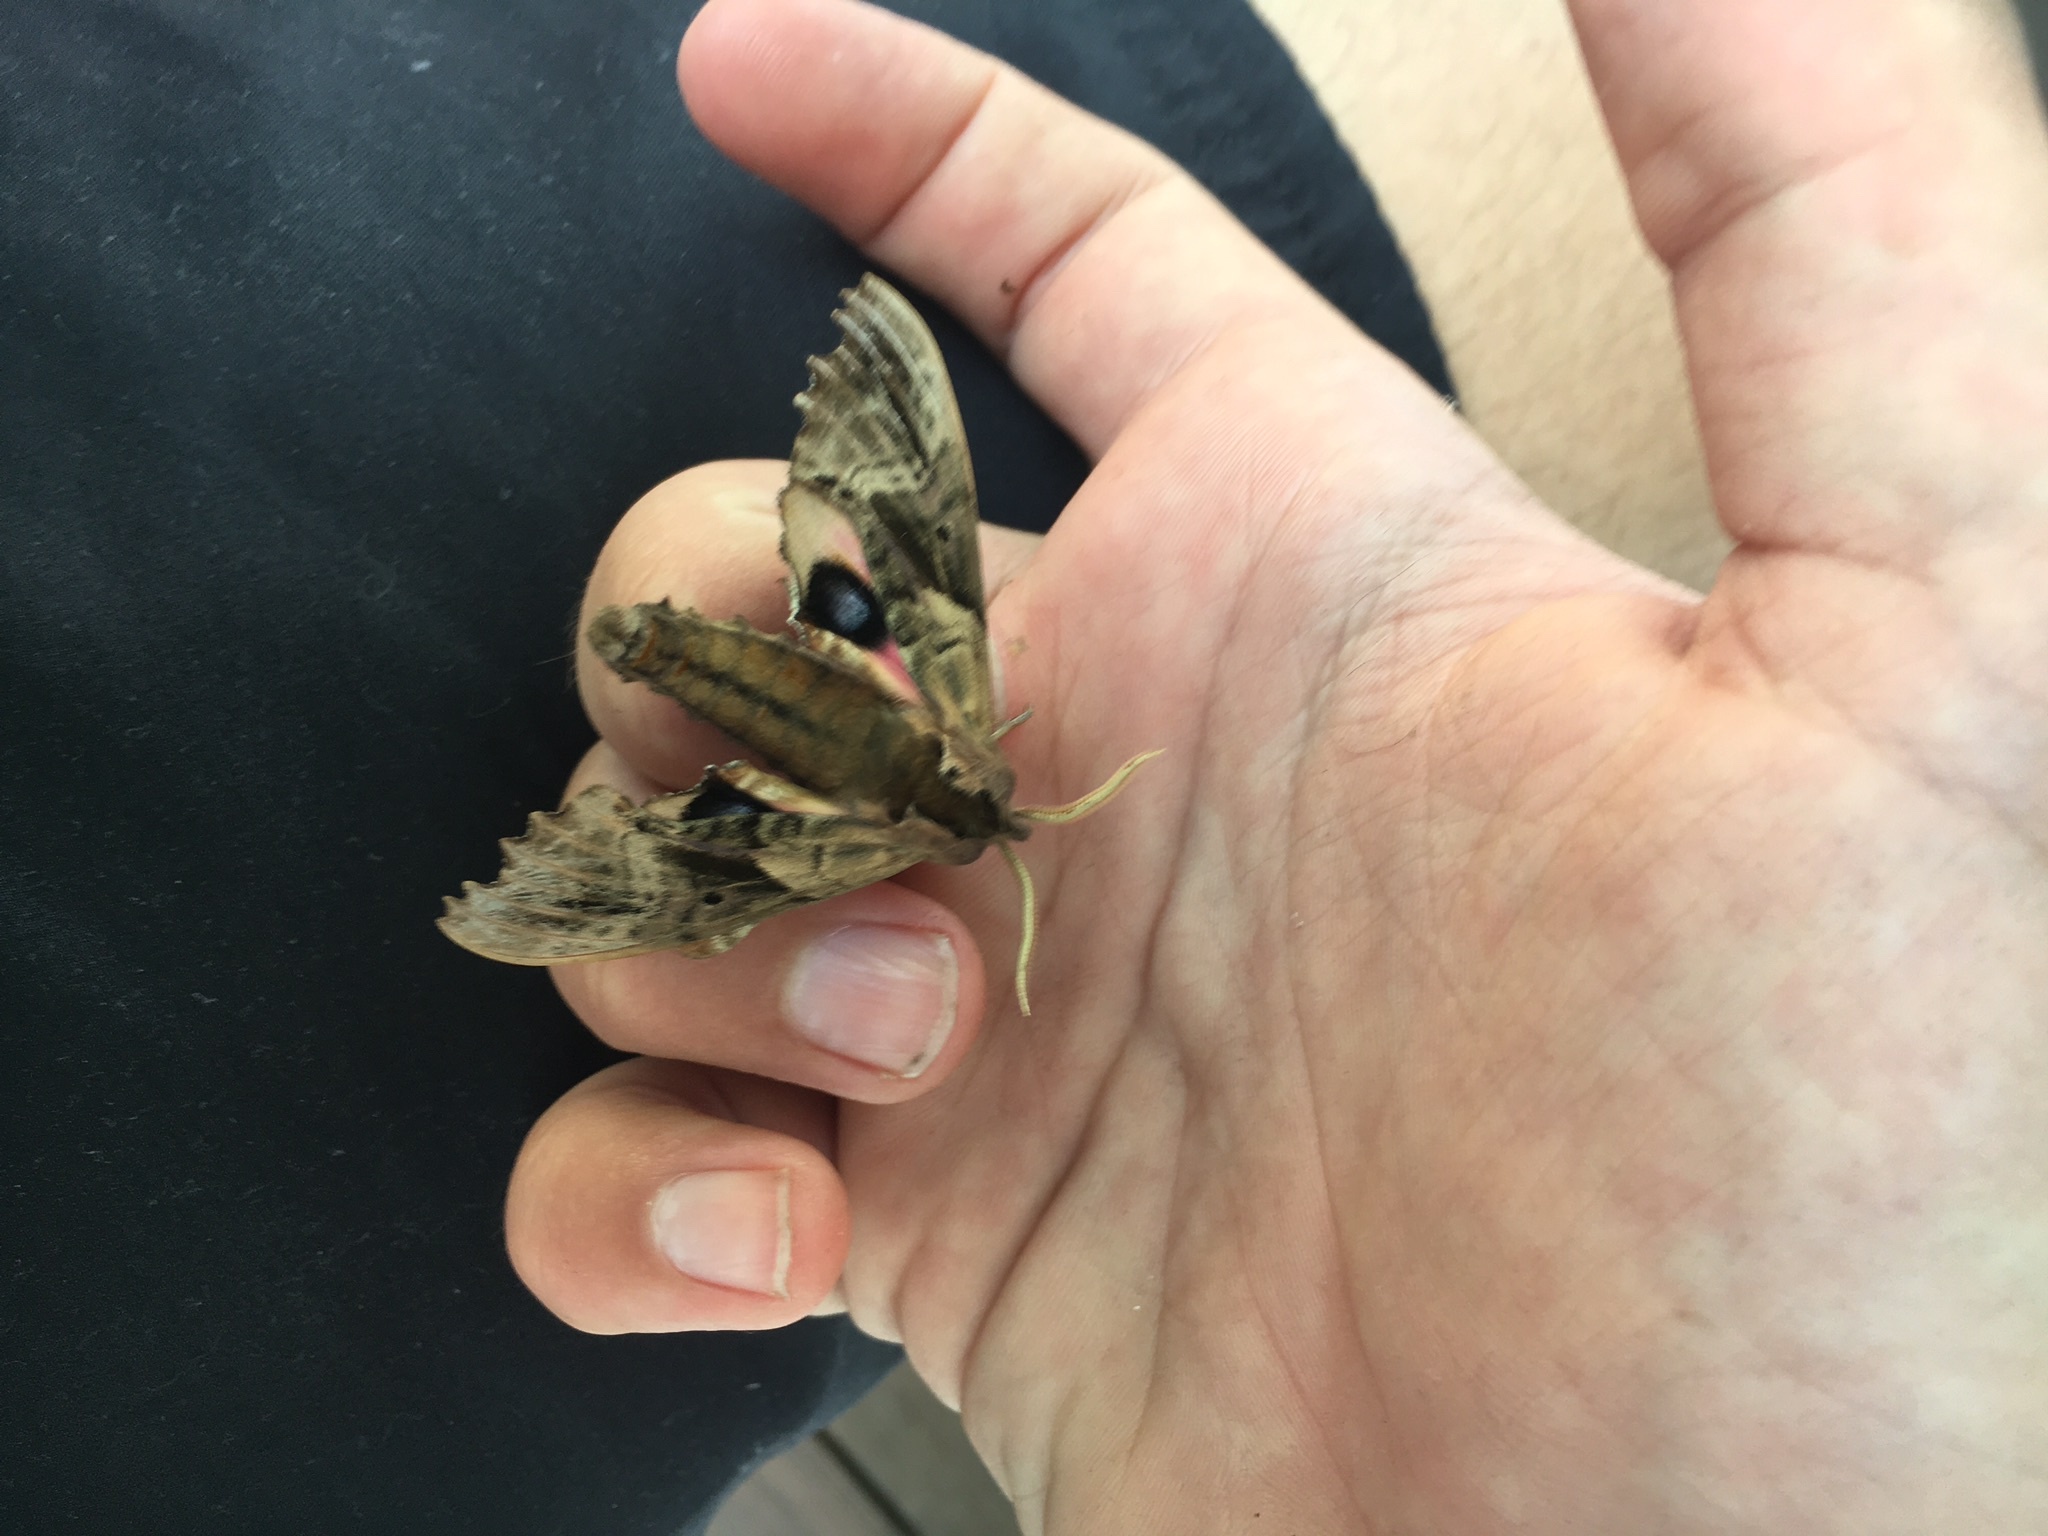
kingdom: Animalia
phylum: Arthropoda
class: Insecta
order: Lepidoptera
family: Sphingidae
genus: Paonias
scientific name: Paonias excaecata
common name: Blind-eyed sphinx
